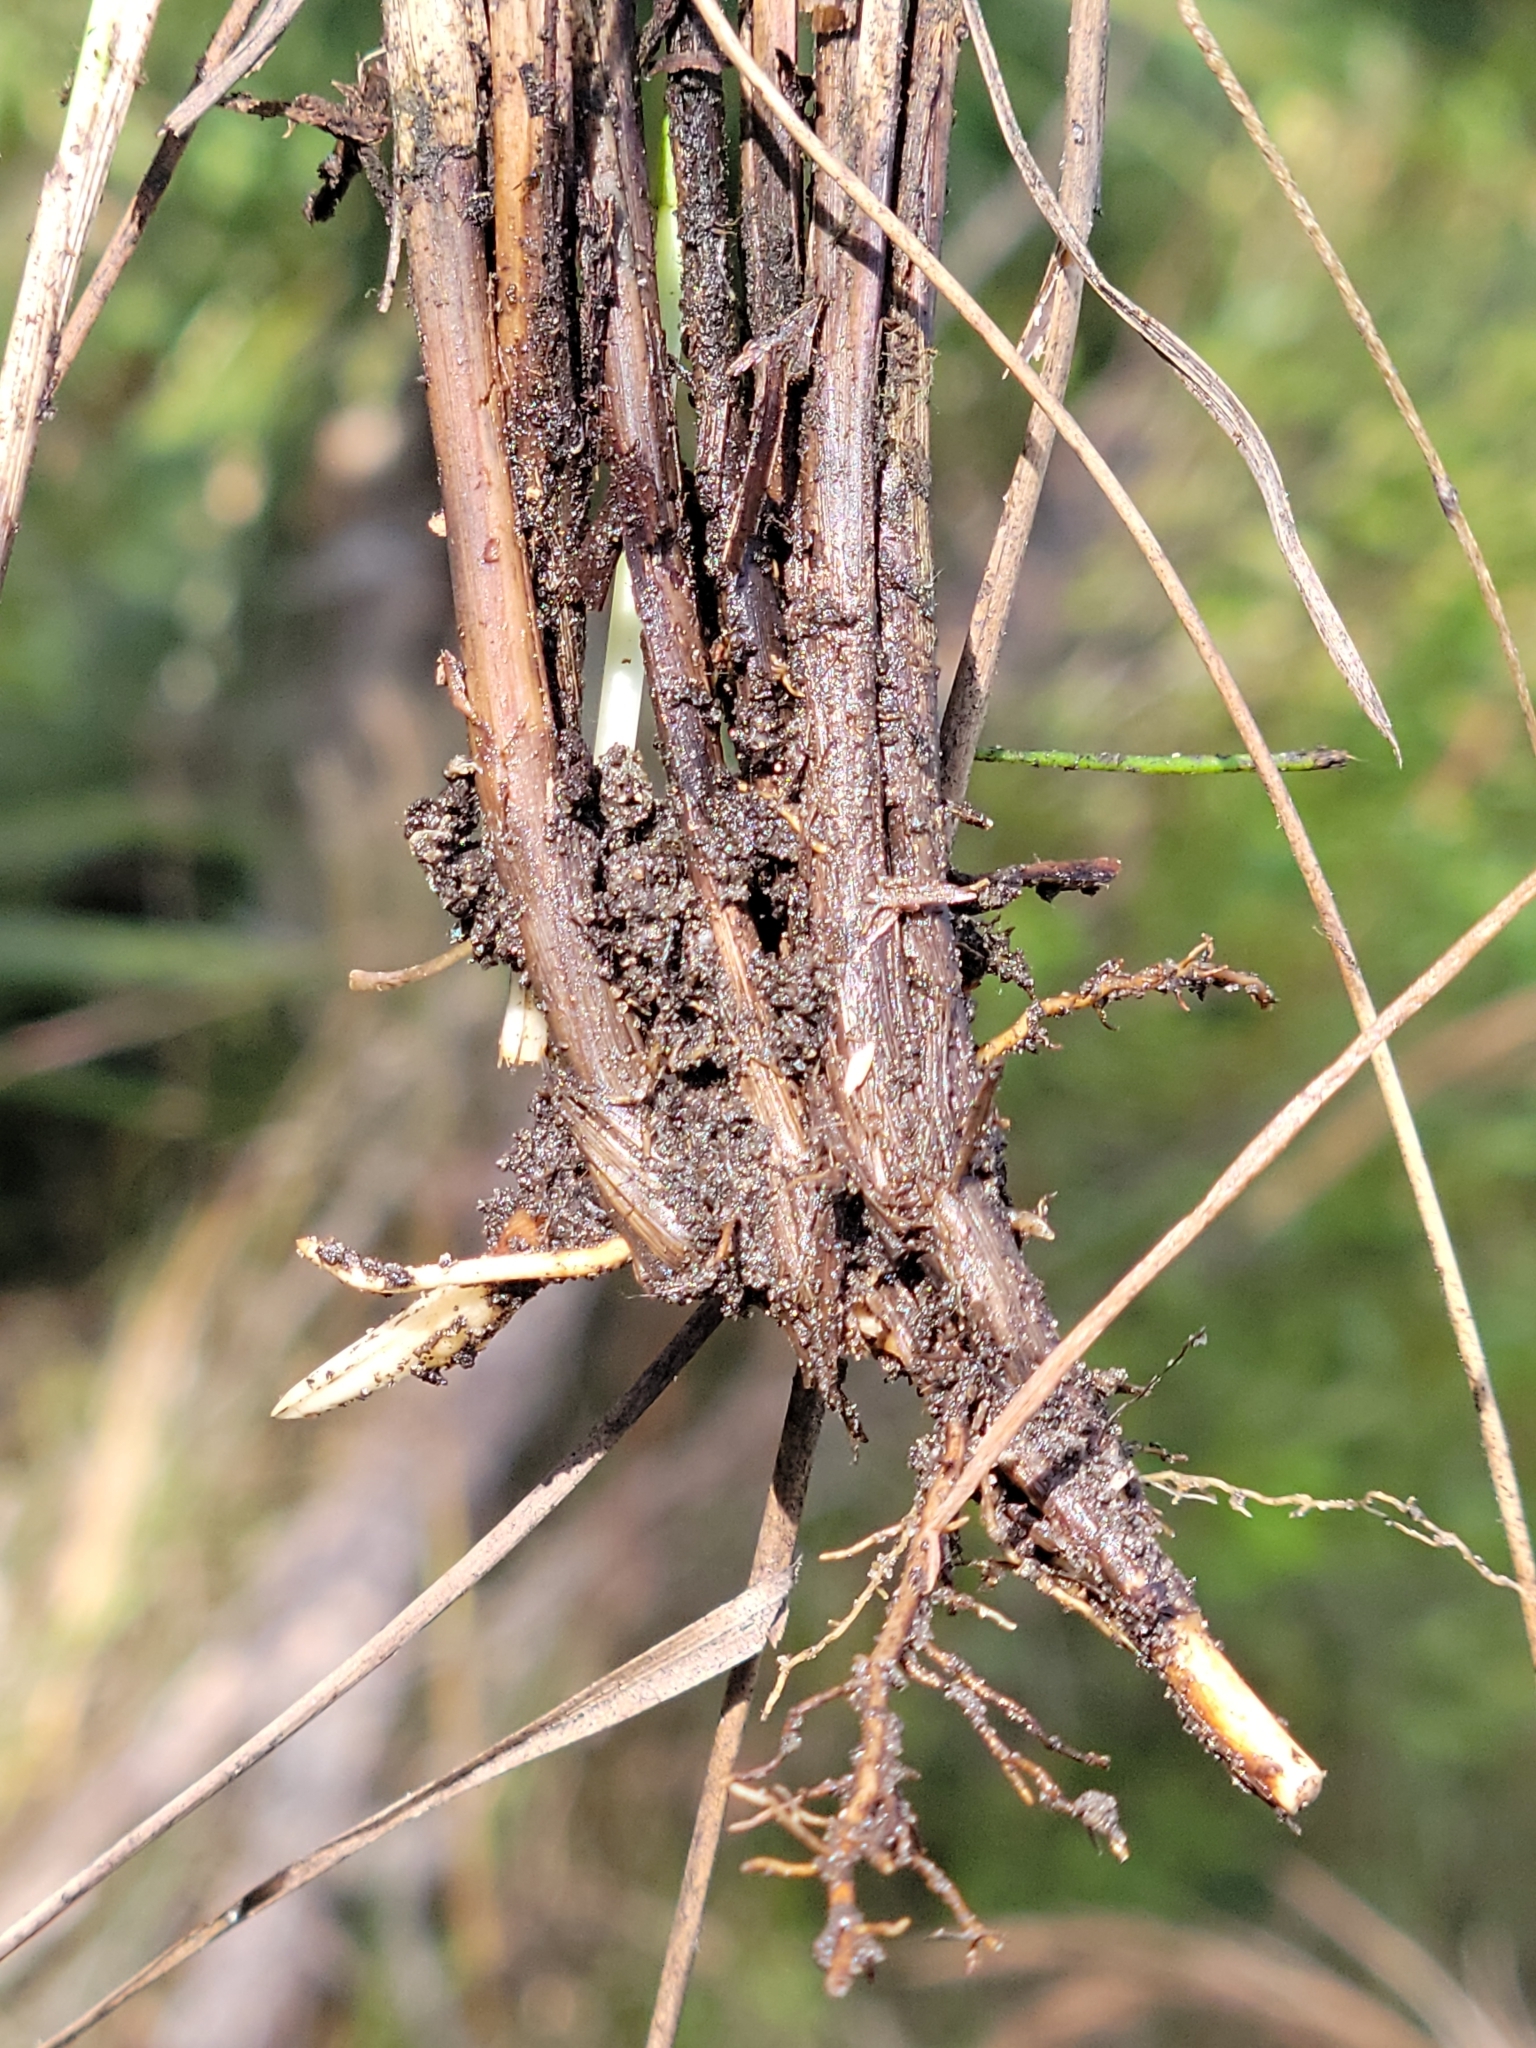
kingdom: Plantae
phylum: Tracheophyta
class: Liliopsida
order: Poales
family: Poaceae
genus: Schizachyrium
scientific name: Schizachyrium rhizomatum
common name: Florida little bluestem
